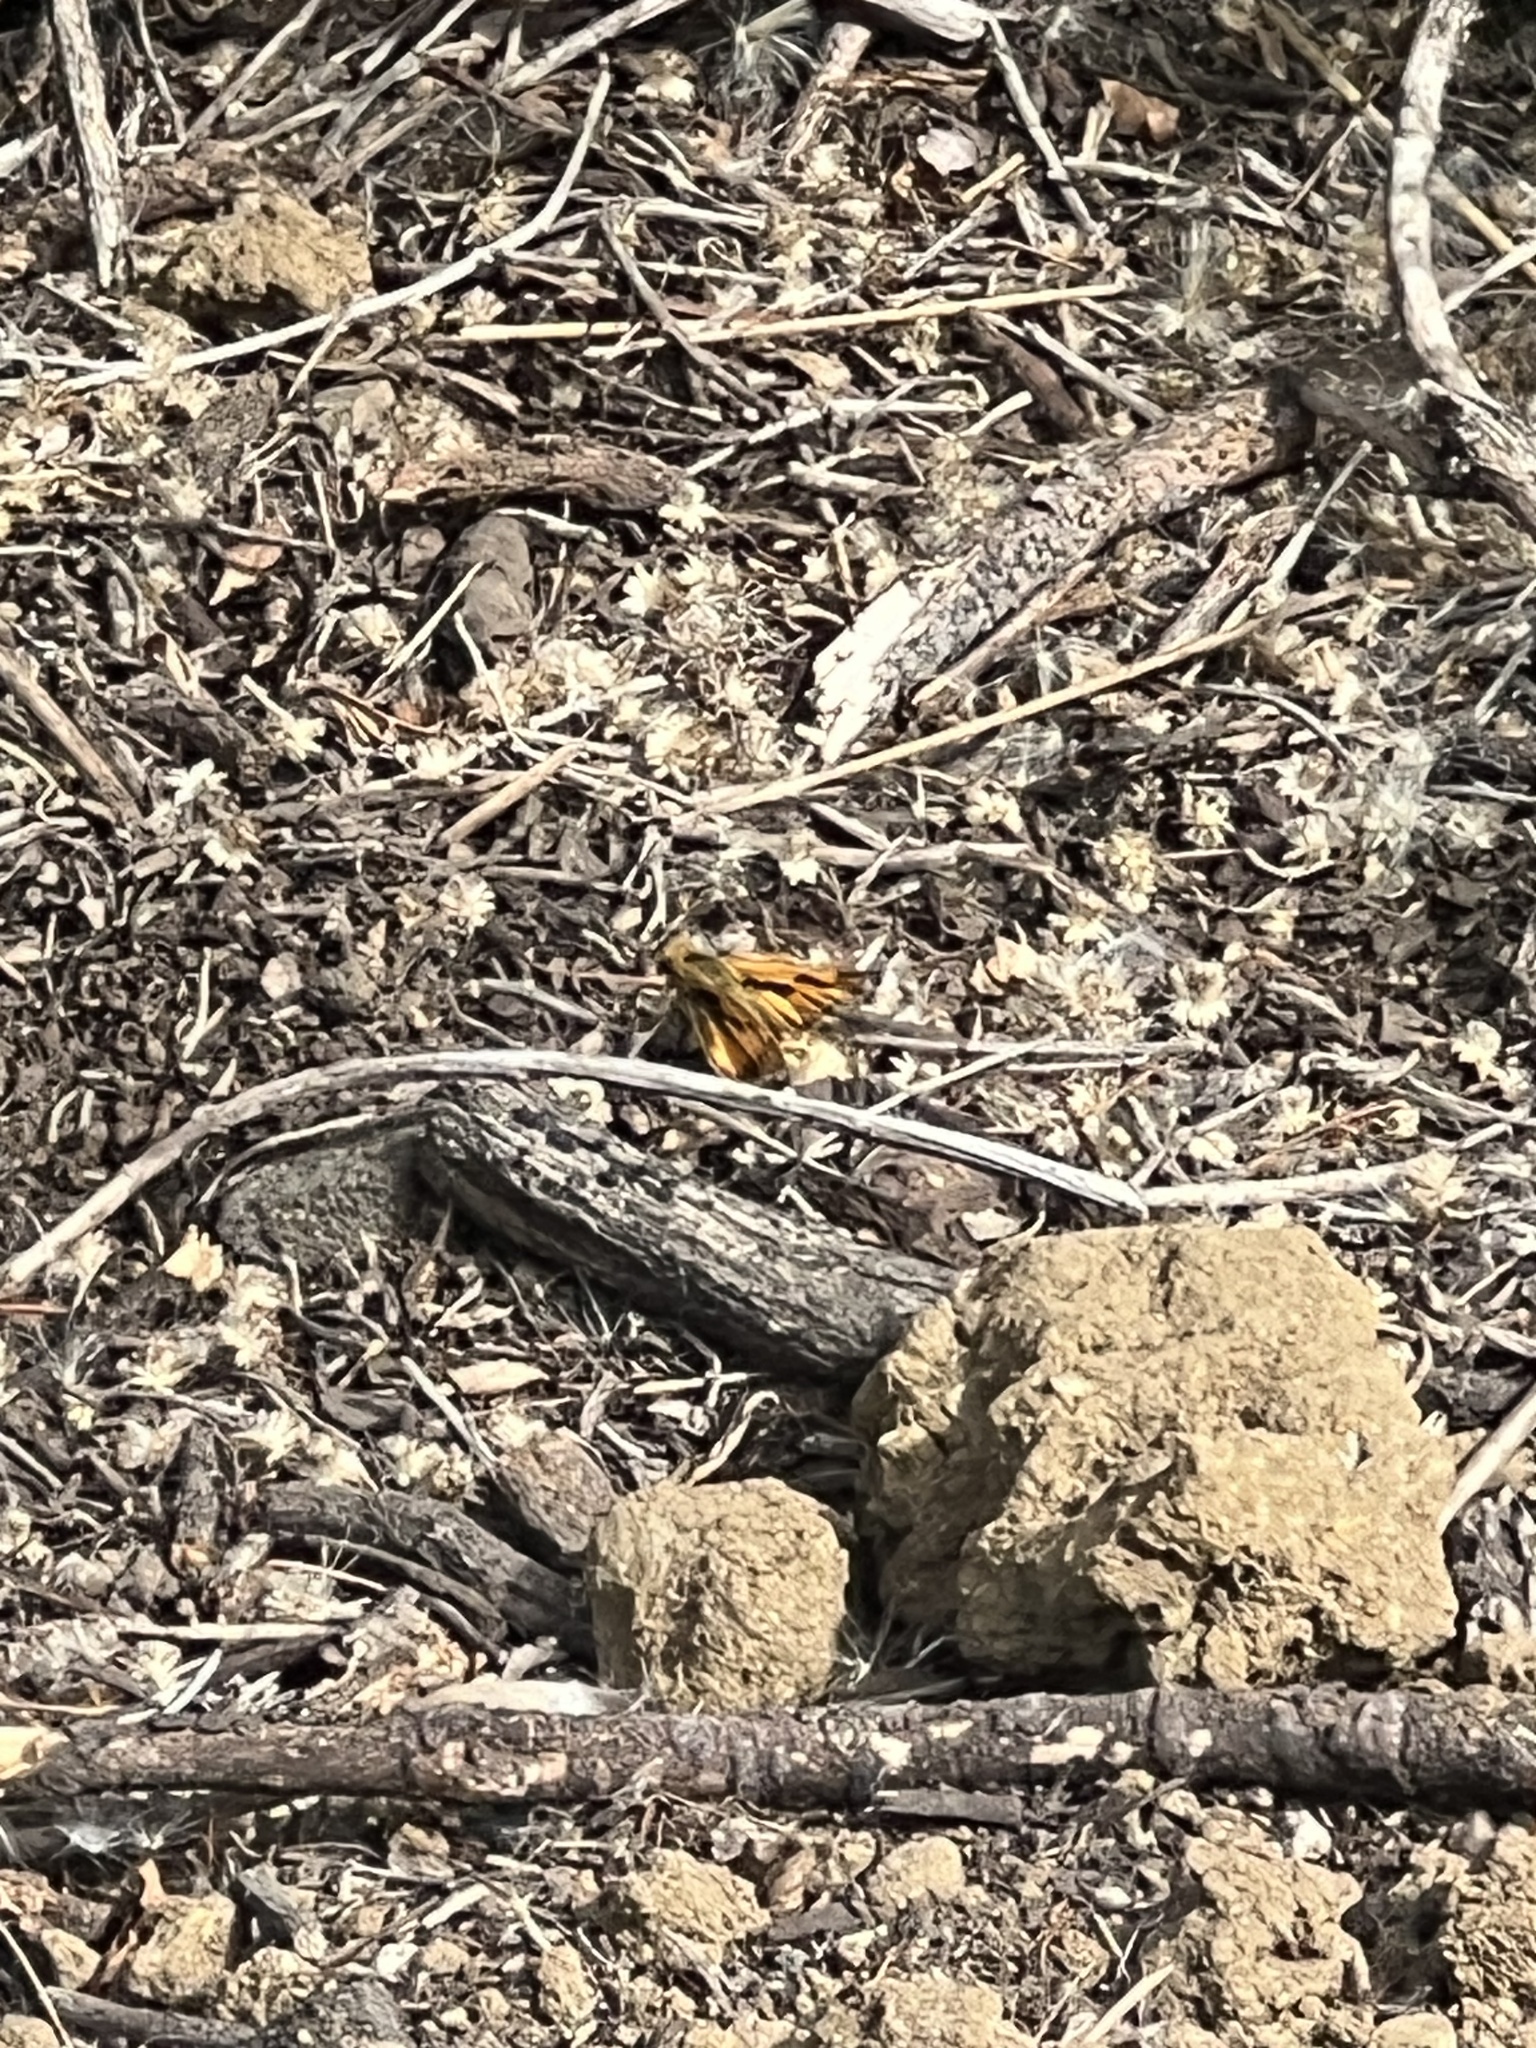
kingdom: Animalia
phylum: Arthropoda
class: Insecta
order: Lepidoptera
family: Hesperiidae
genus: Hylephila
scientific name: Hylephila phyleus
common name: Fiery skipper
